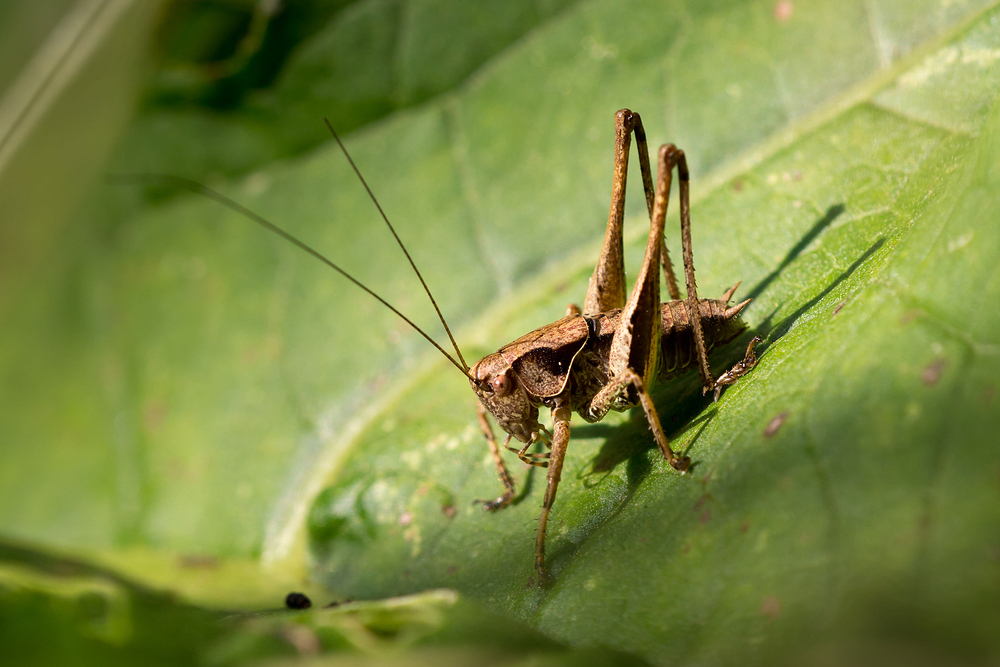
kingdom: Animalia
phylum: Arthropoda
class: Insecta
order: Orthoptera
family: Tettigoniidae
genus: Pholidoptera
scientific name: Pholidoptera griseoaptera
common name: Dark bush-cricket
